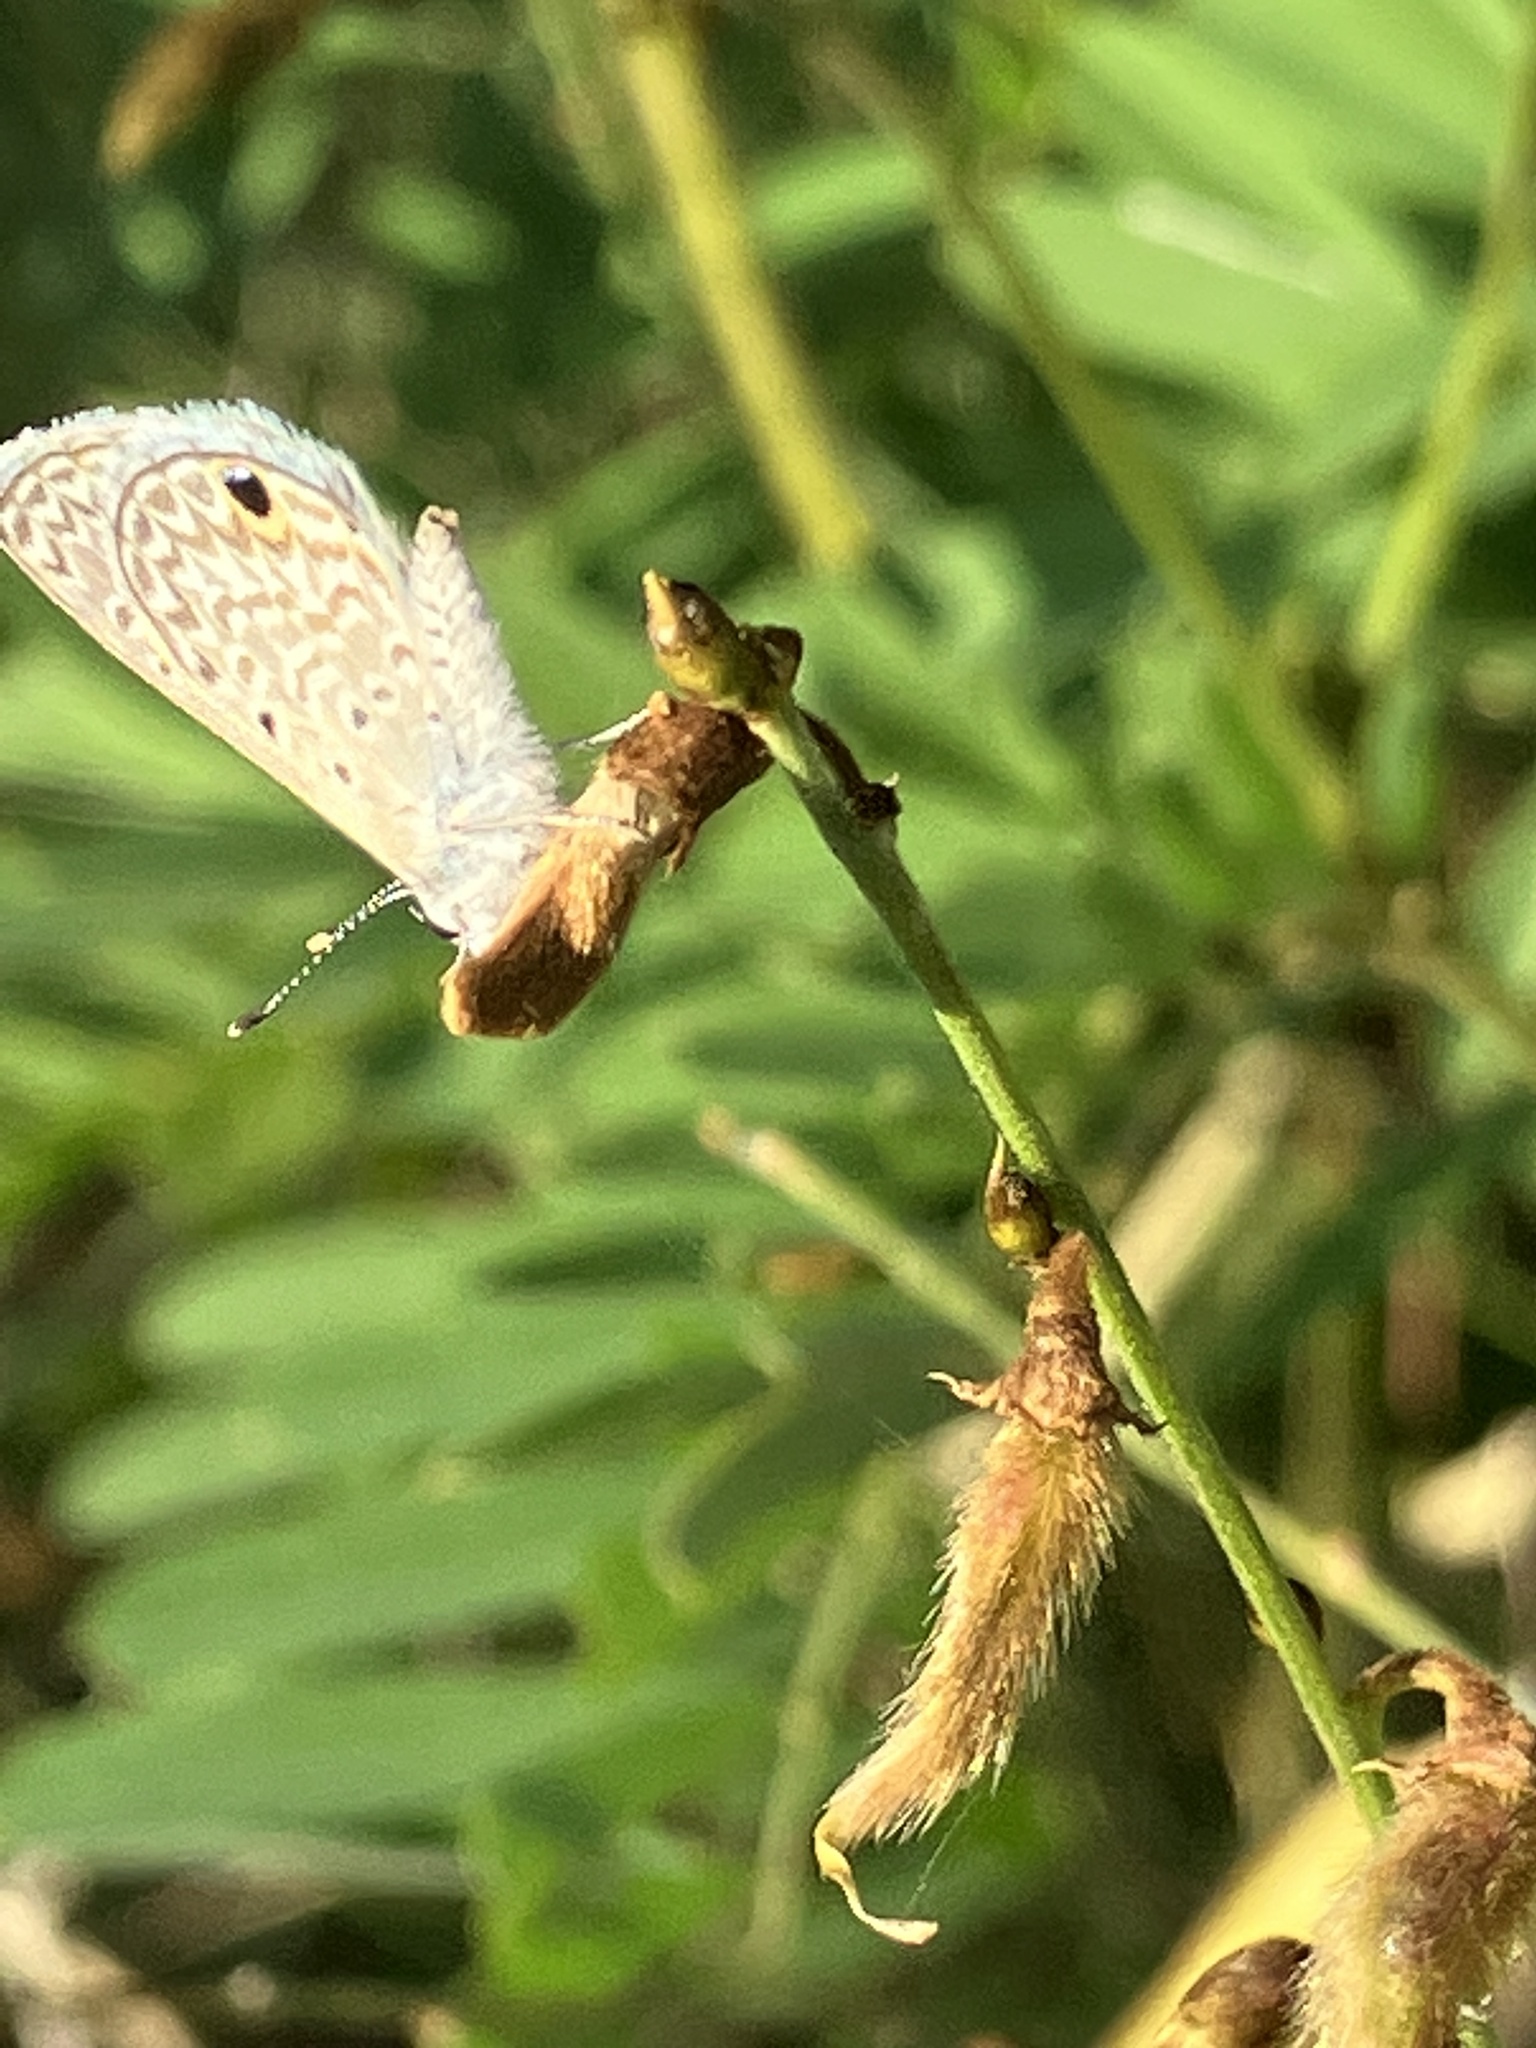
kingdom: Animalia
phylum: Arthropoda
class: Insecta
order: Lepidoptera
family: Lycaenidae
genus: Hemiargus
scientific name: Hemiargus hanno
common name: Common blue
